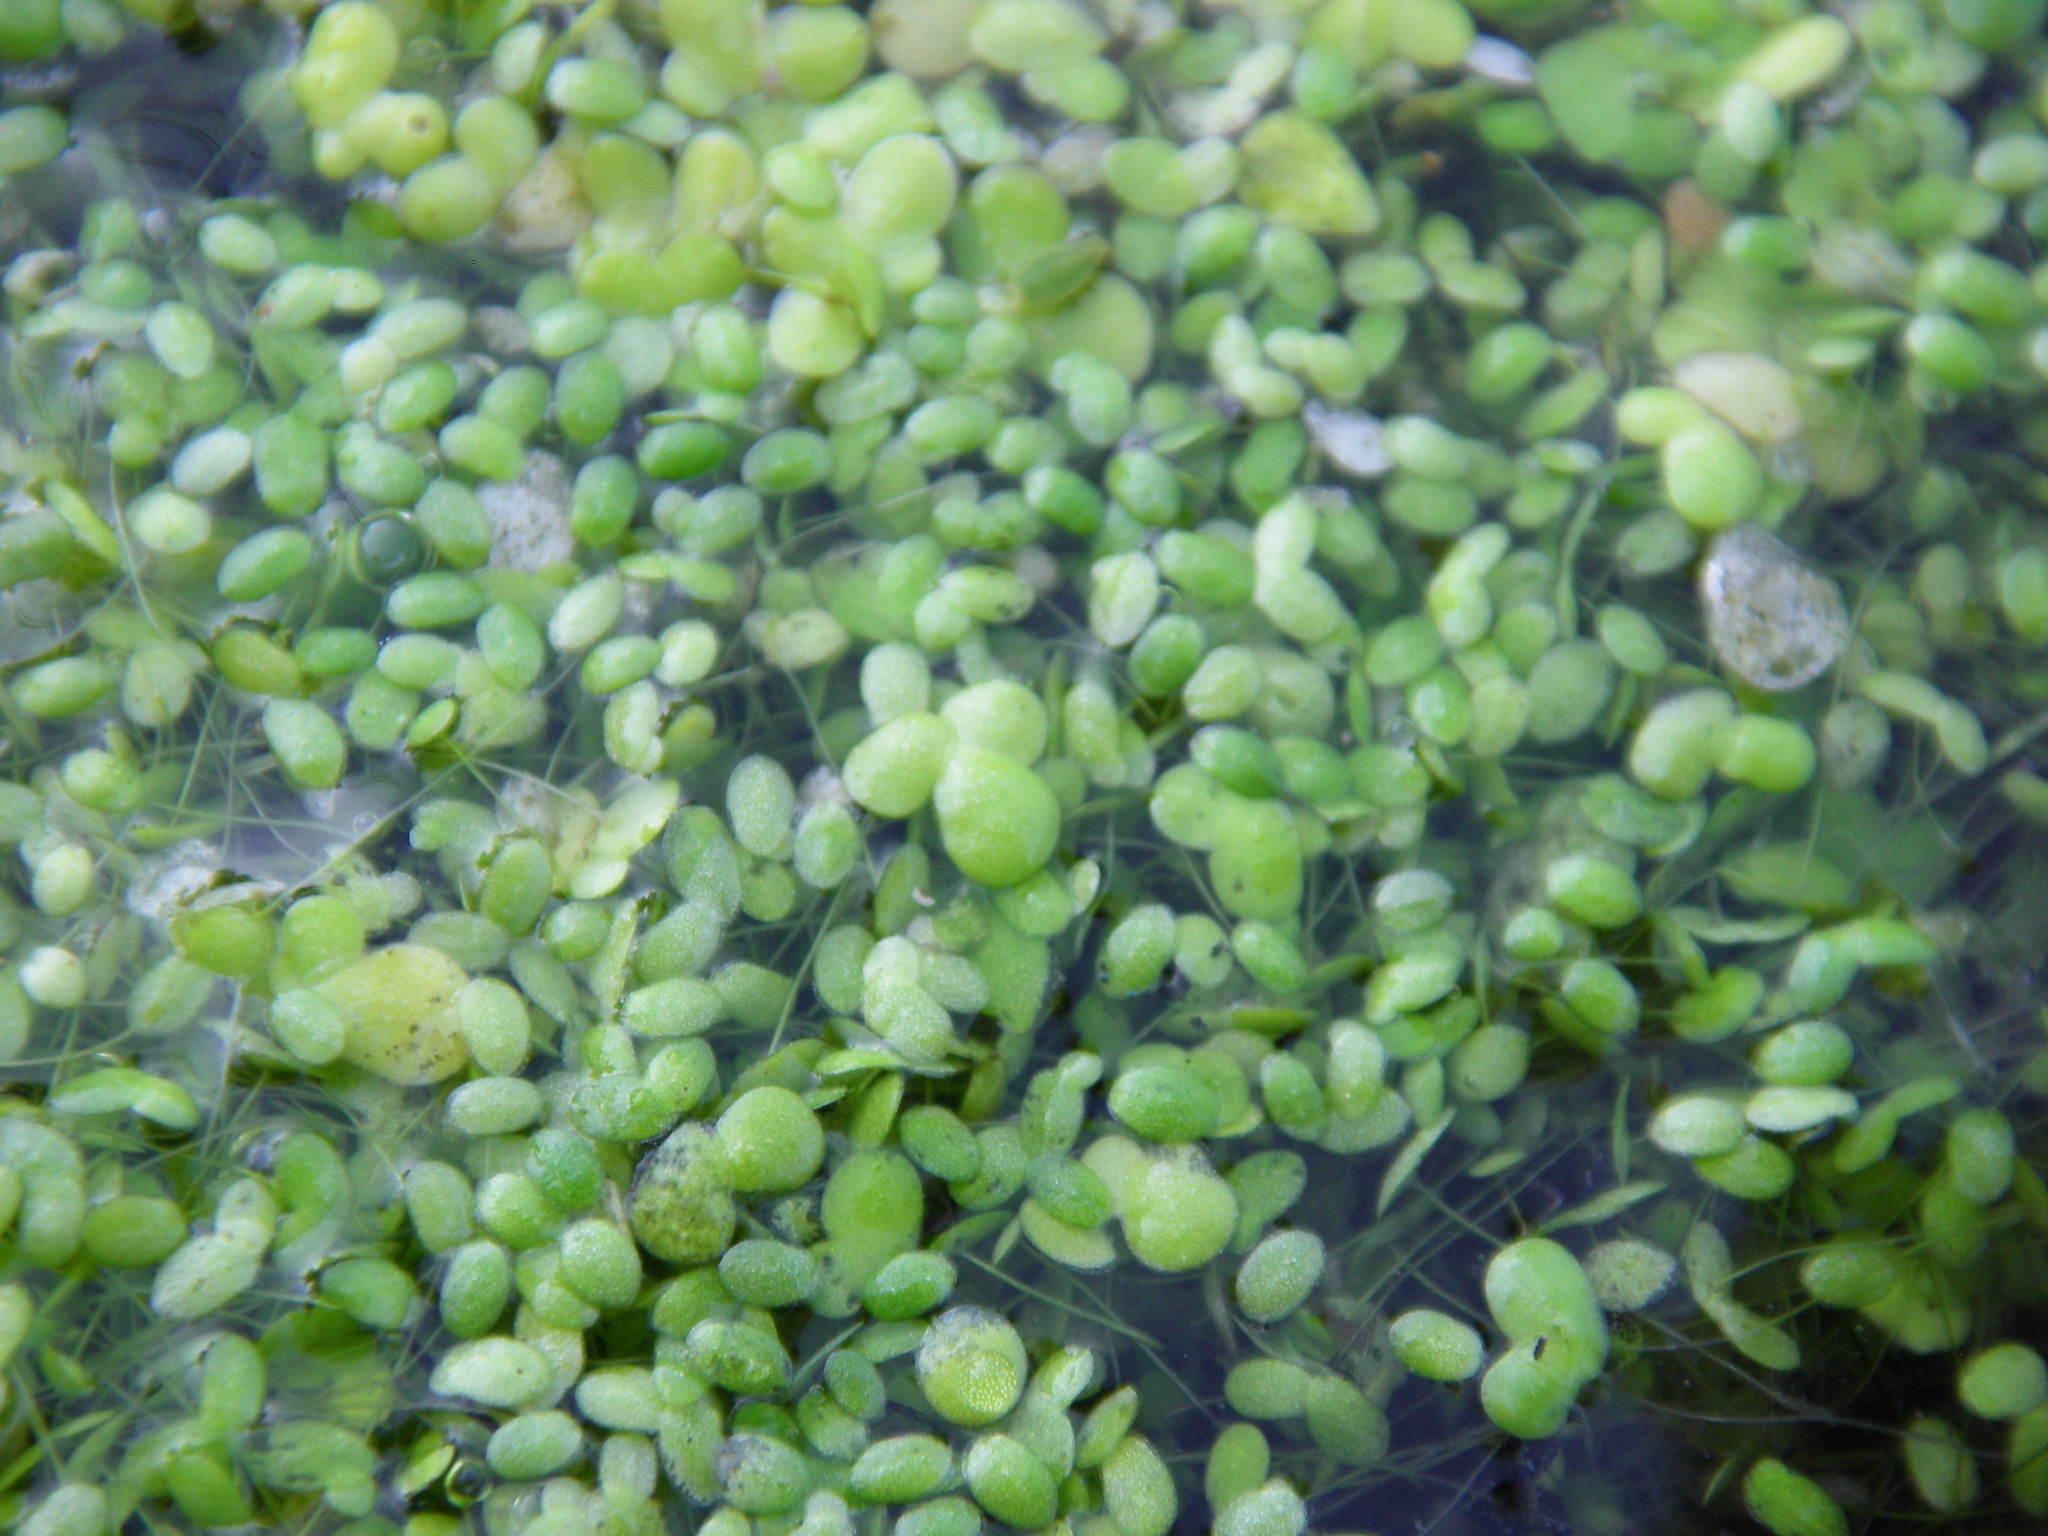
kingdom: Plantae
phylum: Tracheophyta
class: Liliopsida
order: Alismatales
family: Araceae
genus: Lemna
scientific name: Lemna minuta
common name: Least duckweed
